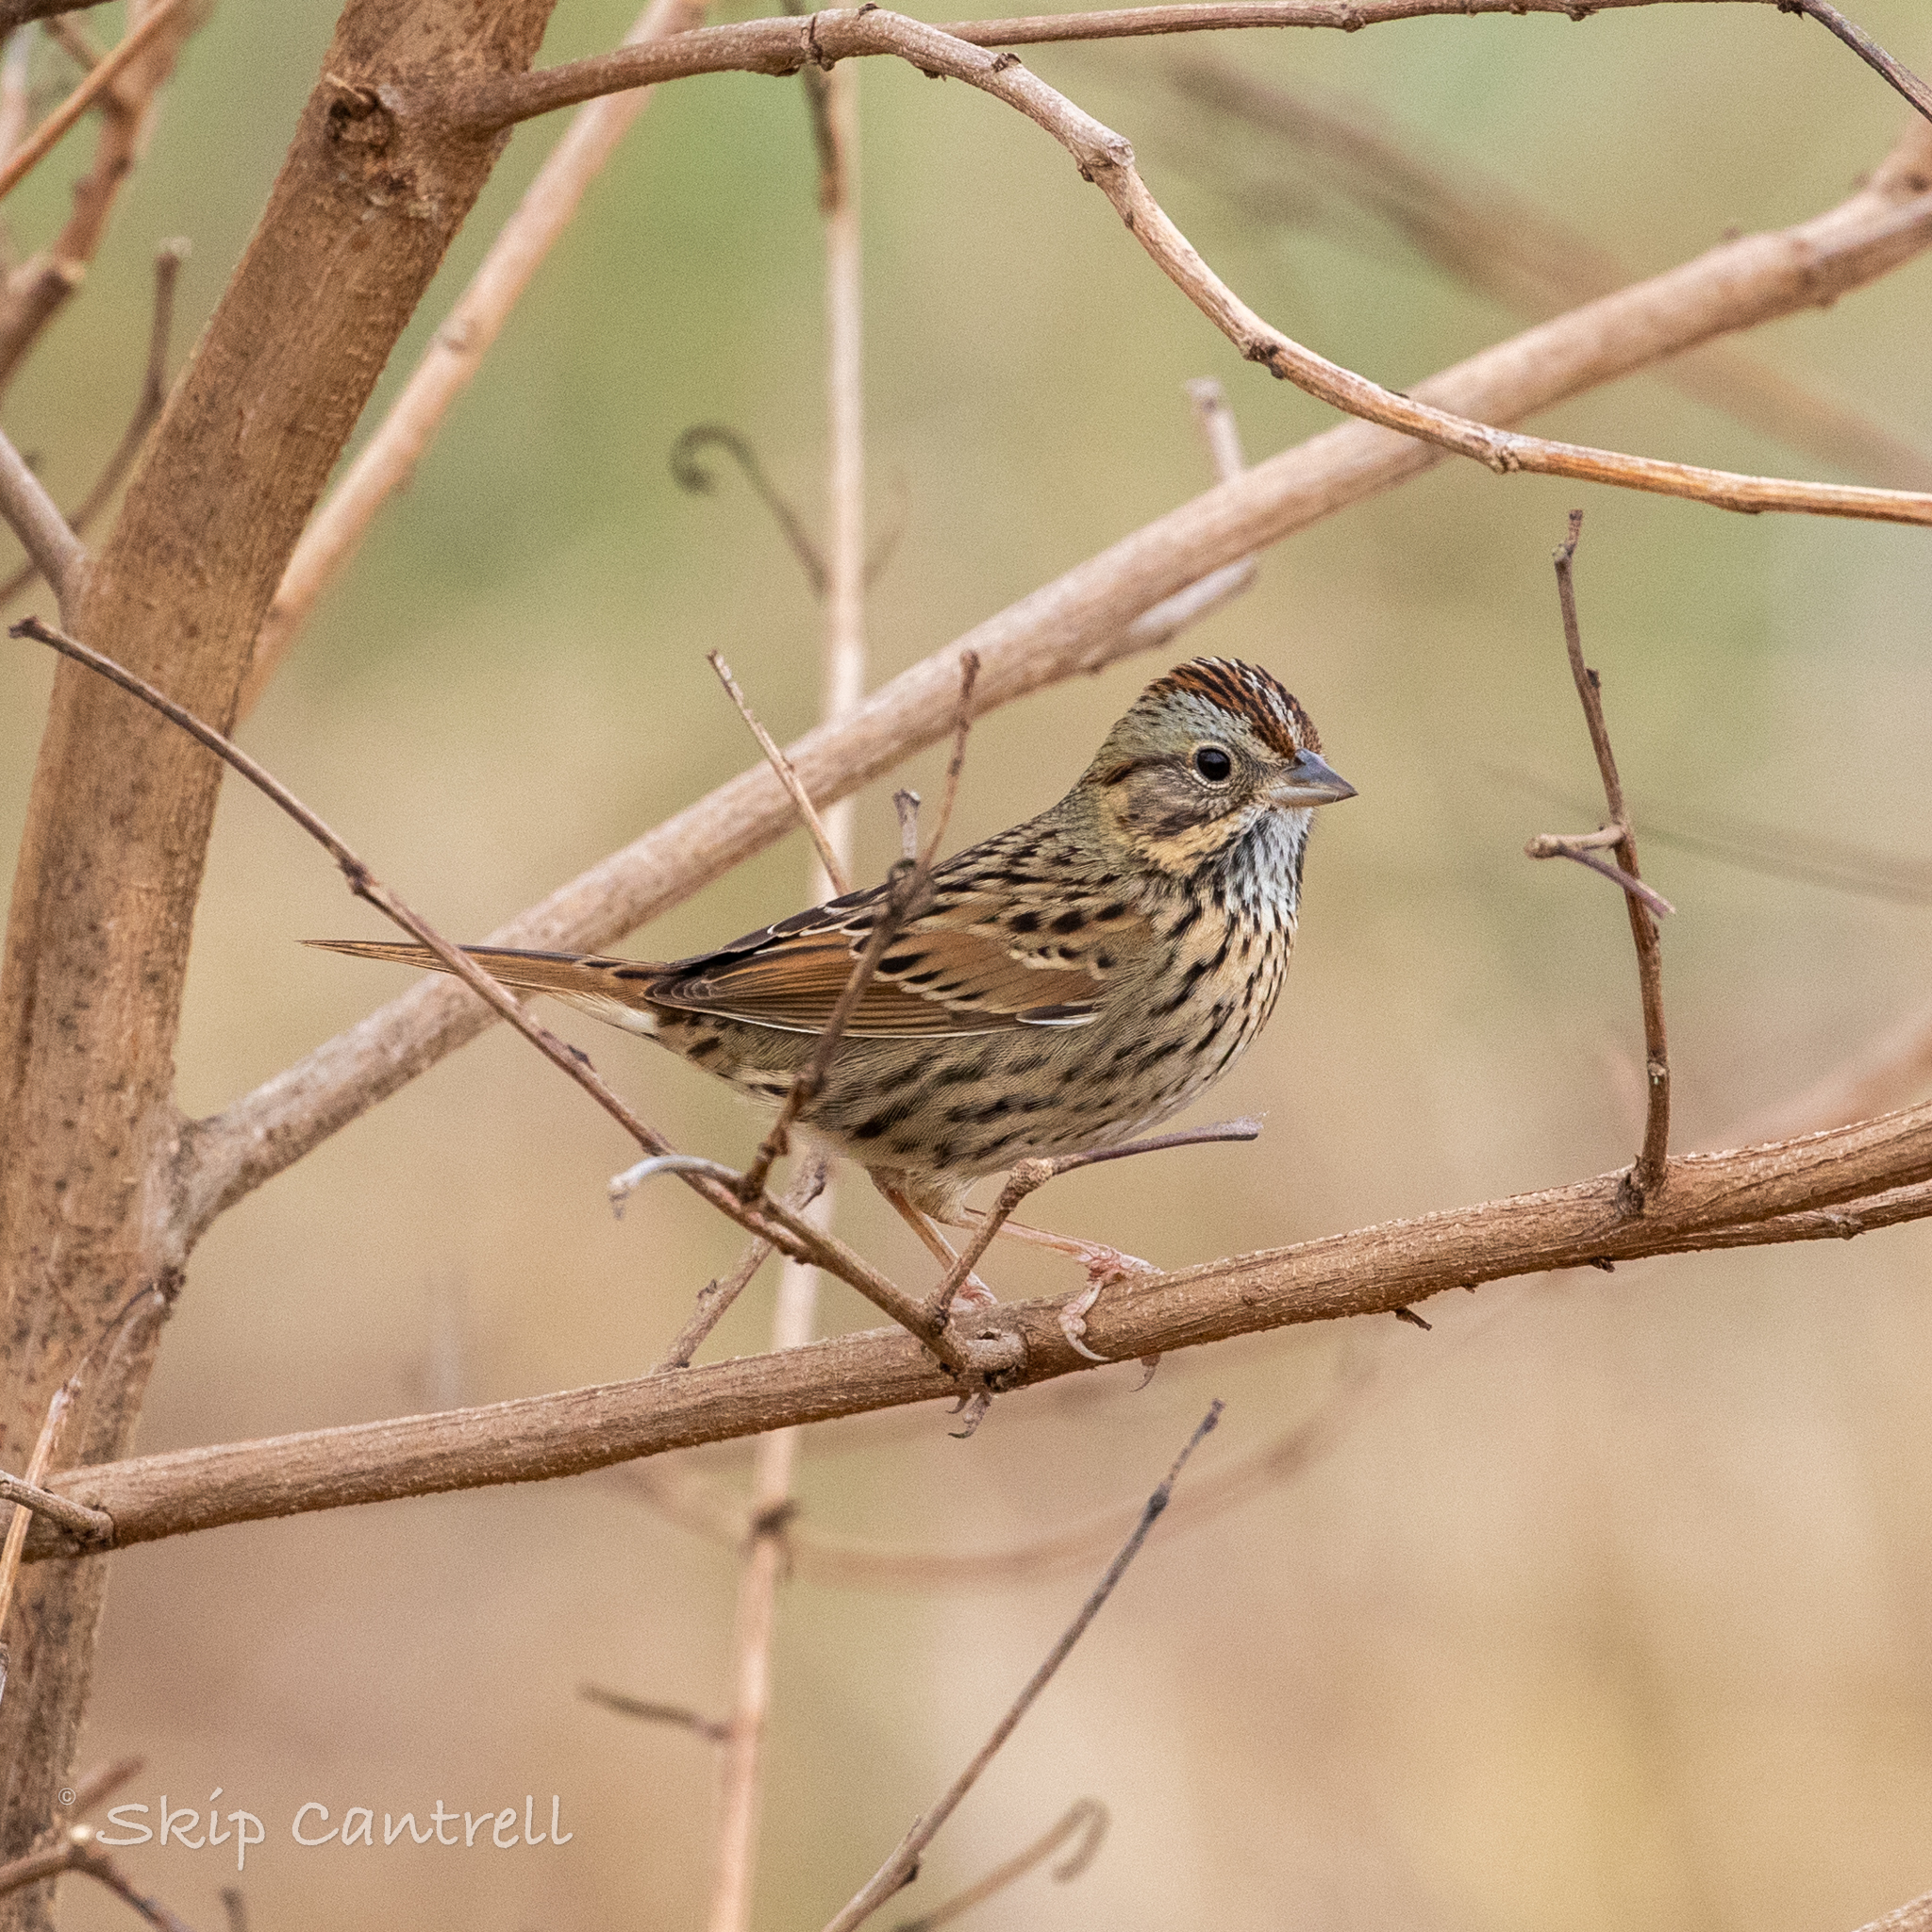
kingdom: Animalia
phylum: Chordata
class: Aves
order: Passeriformes
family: Passerellidae
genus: Melospiza
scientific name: Melospiza lincolnii
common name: Lincoln's sparrow
